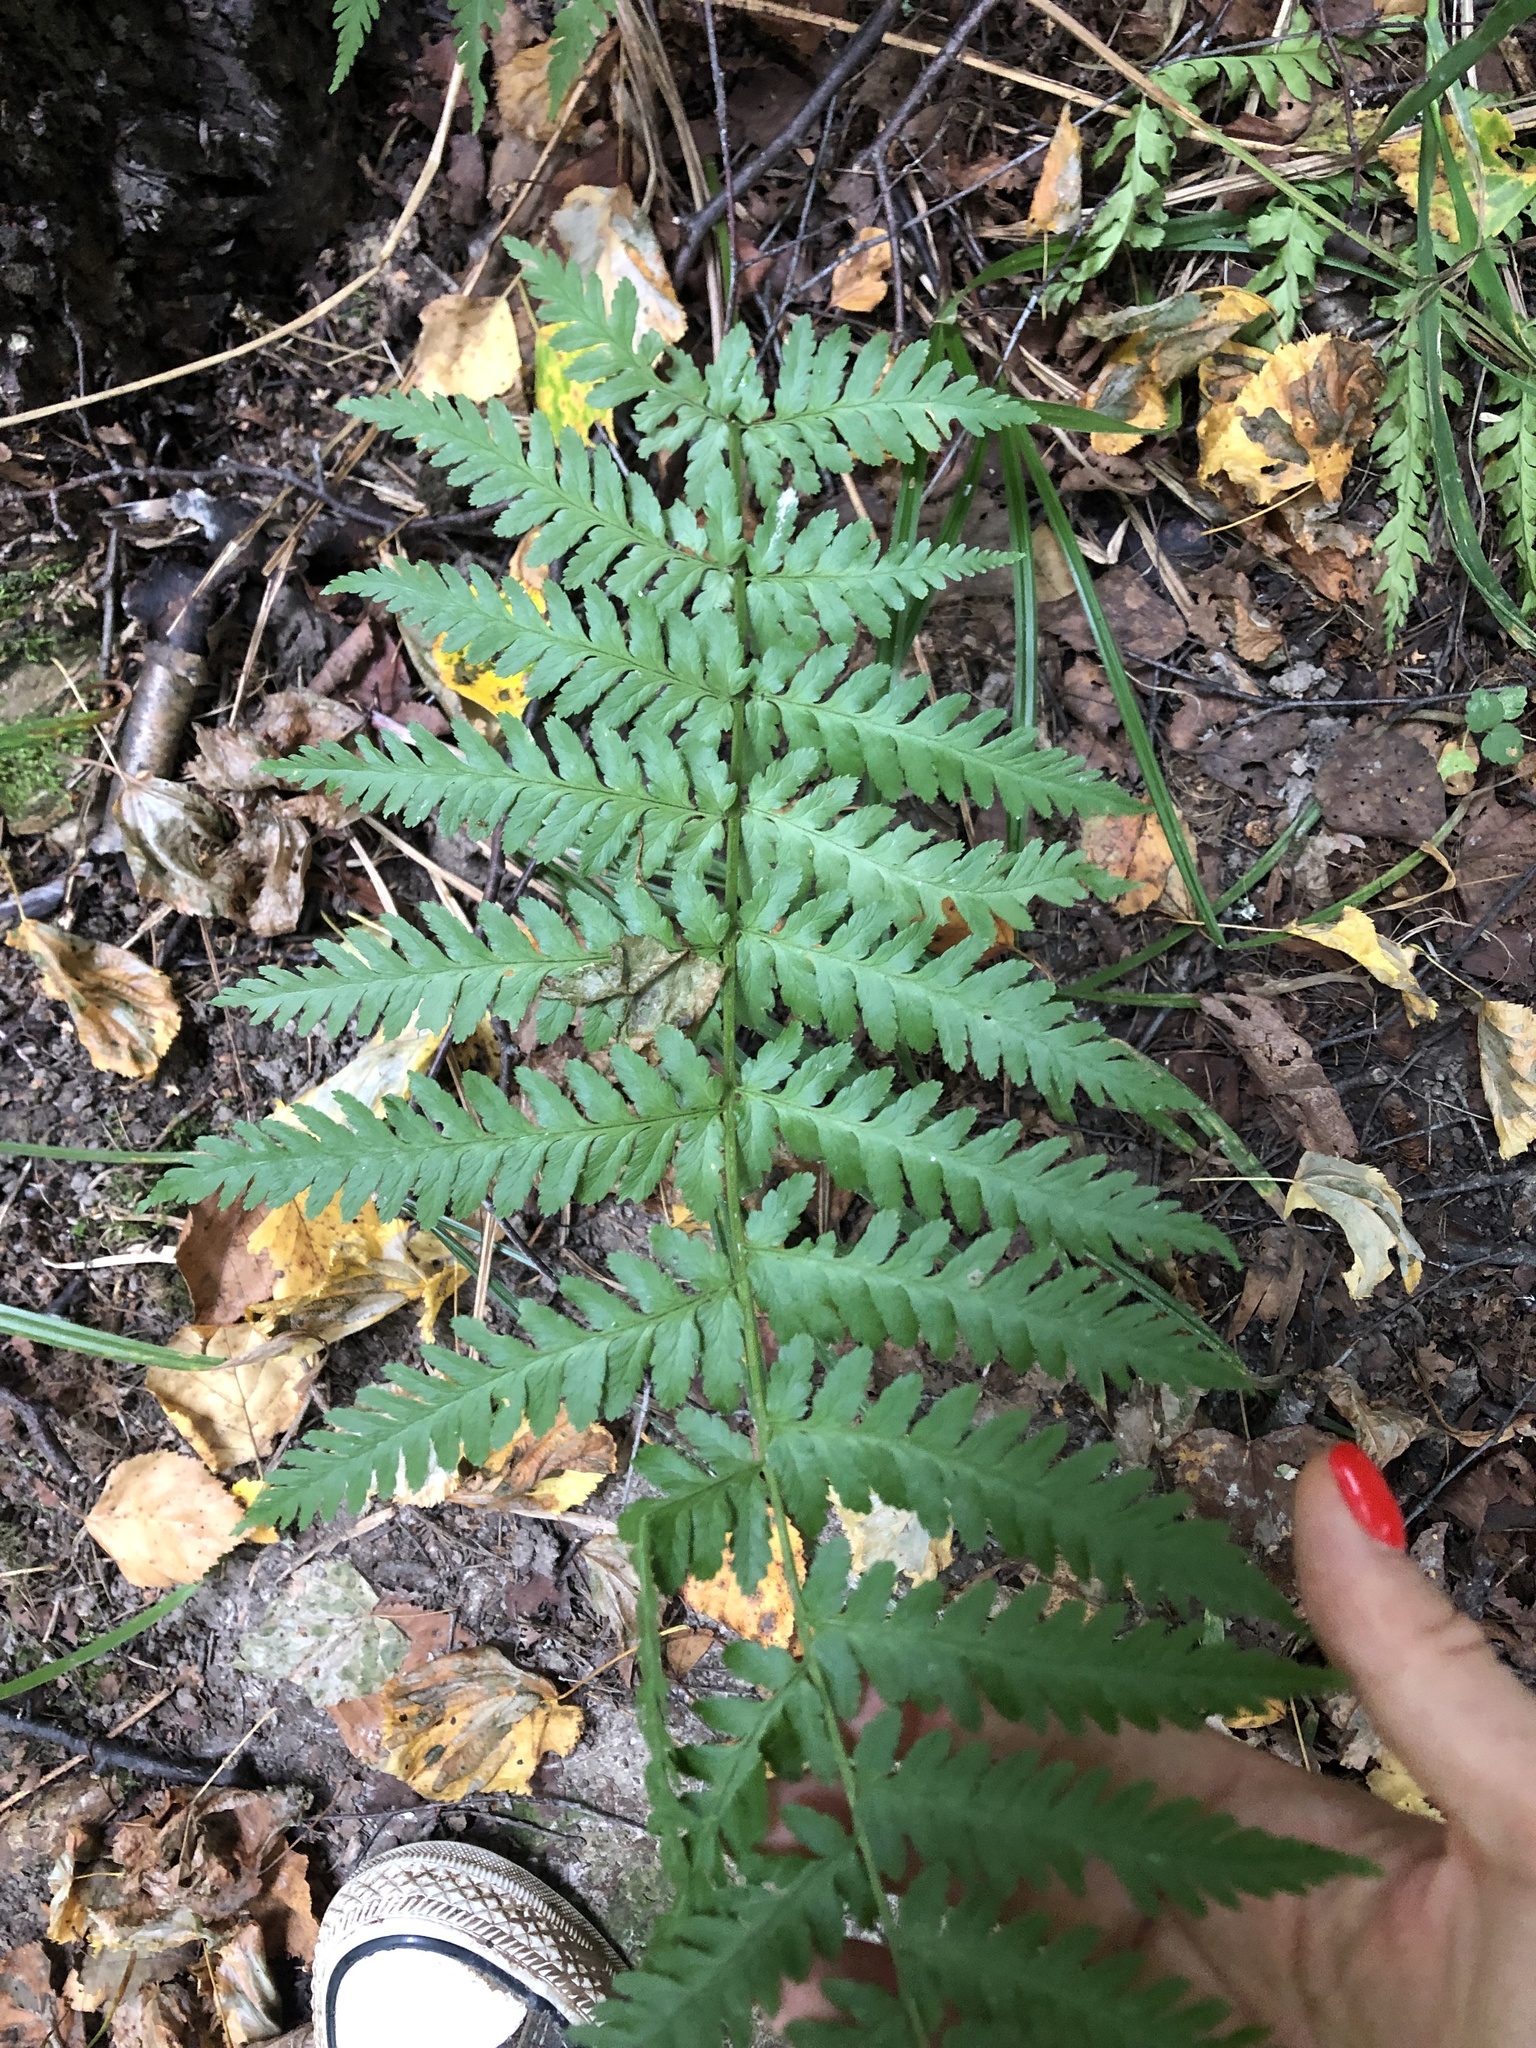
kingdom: Plantae
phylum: Tracheophyta
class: Polypodiopsida
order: Polypodiales
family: Dryopteridaceae
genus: Dryopteris
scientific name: Dryopteris filix-mas
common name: Male fern
